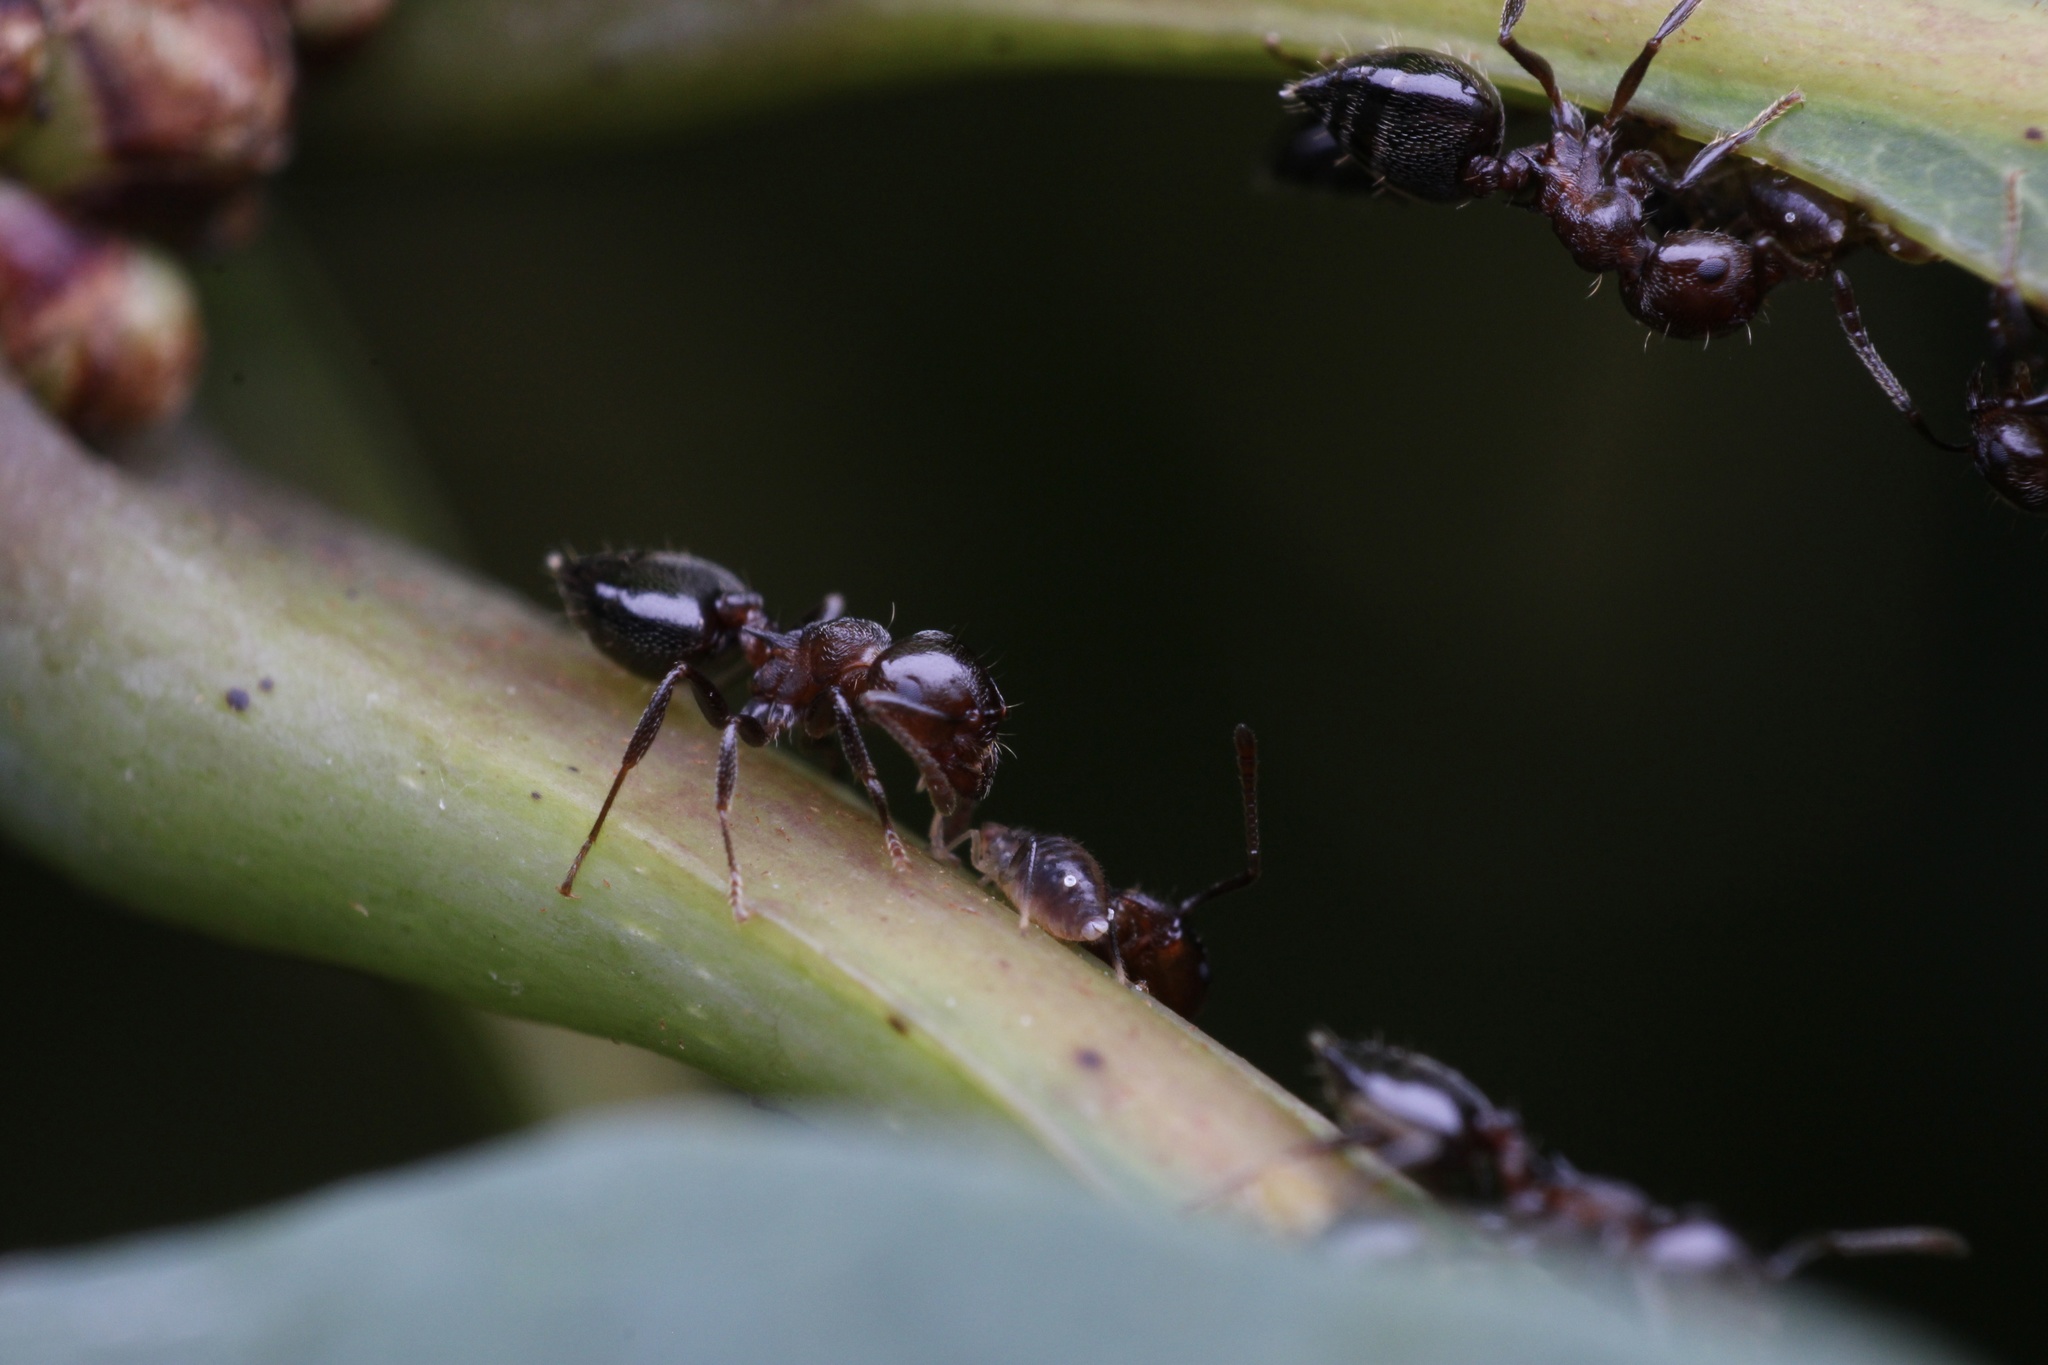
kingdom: Animalia
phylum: Arthropoda
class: Insecta
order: Hymenoptera
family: Formicidae
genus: Crematogaster
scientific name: Crematogaster cerasi
